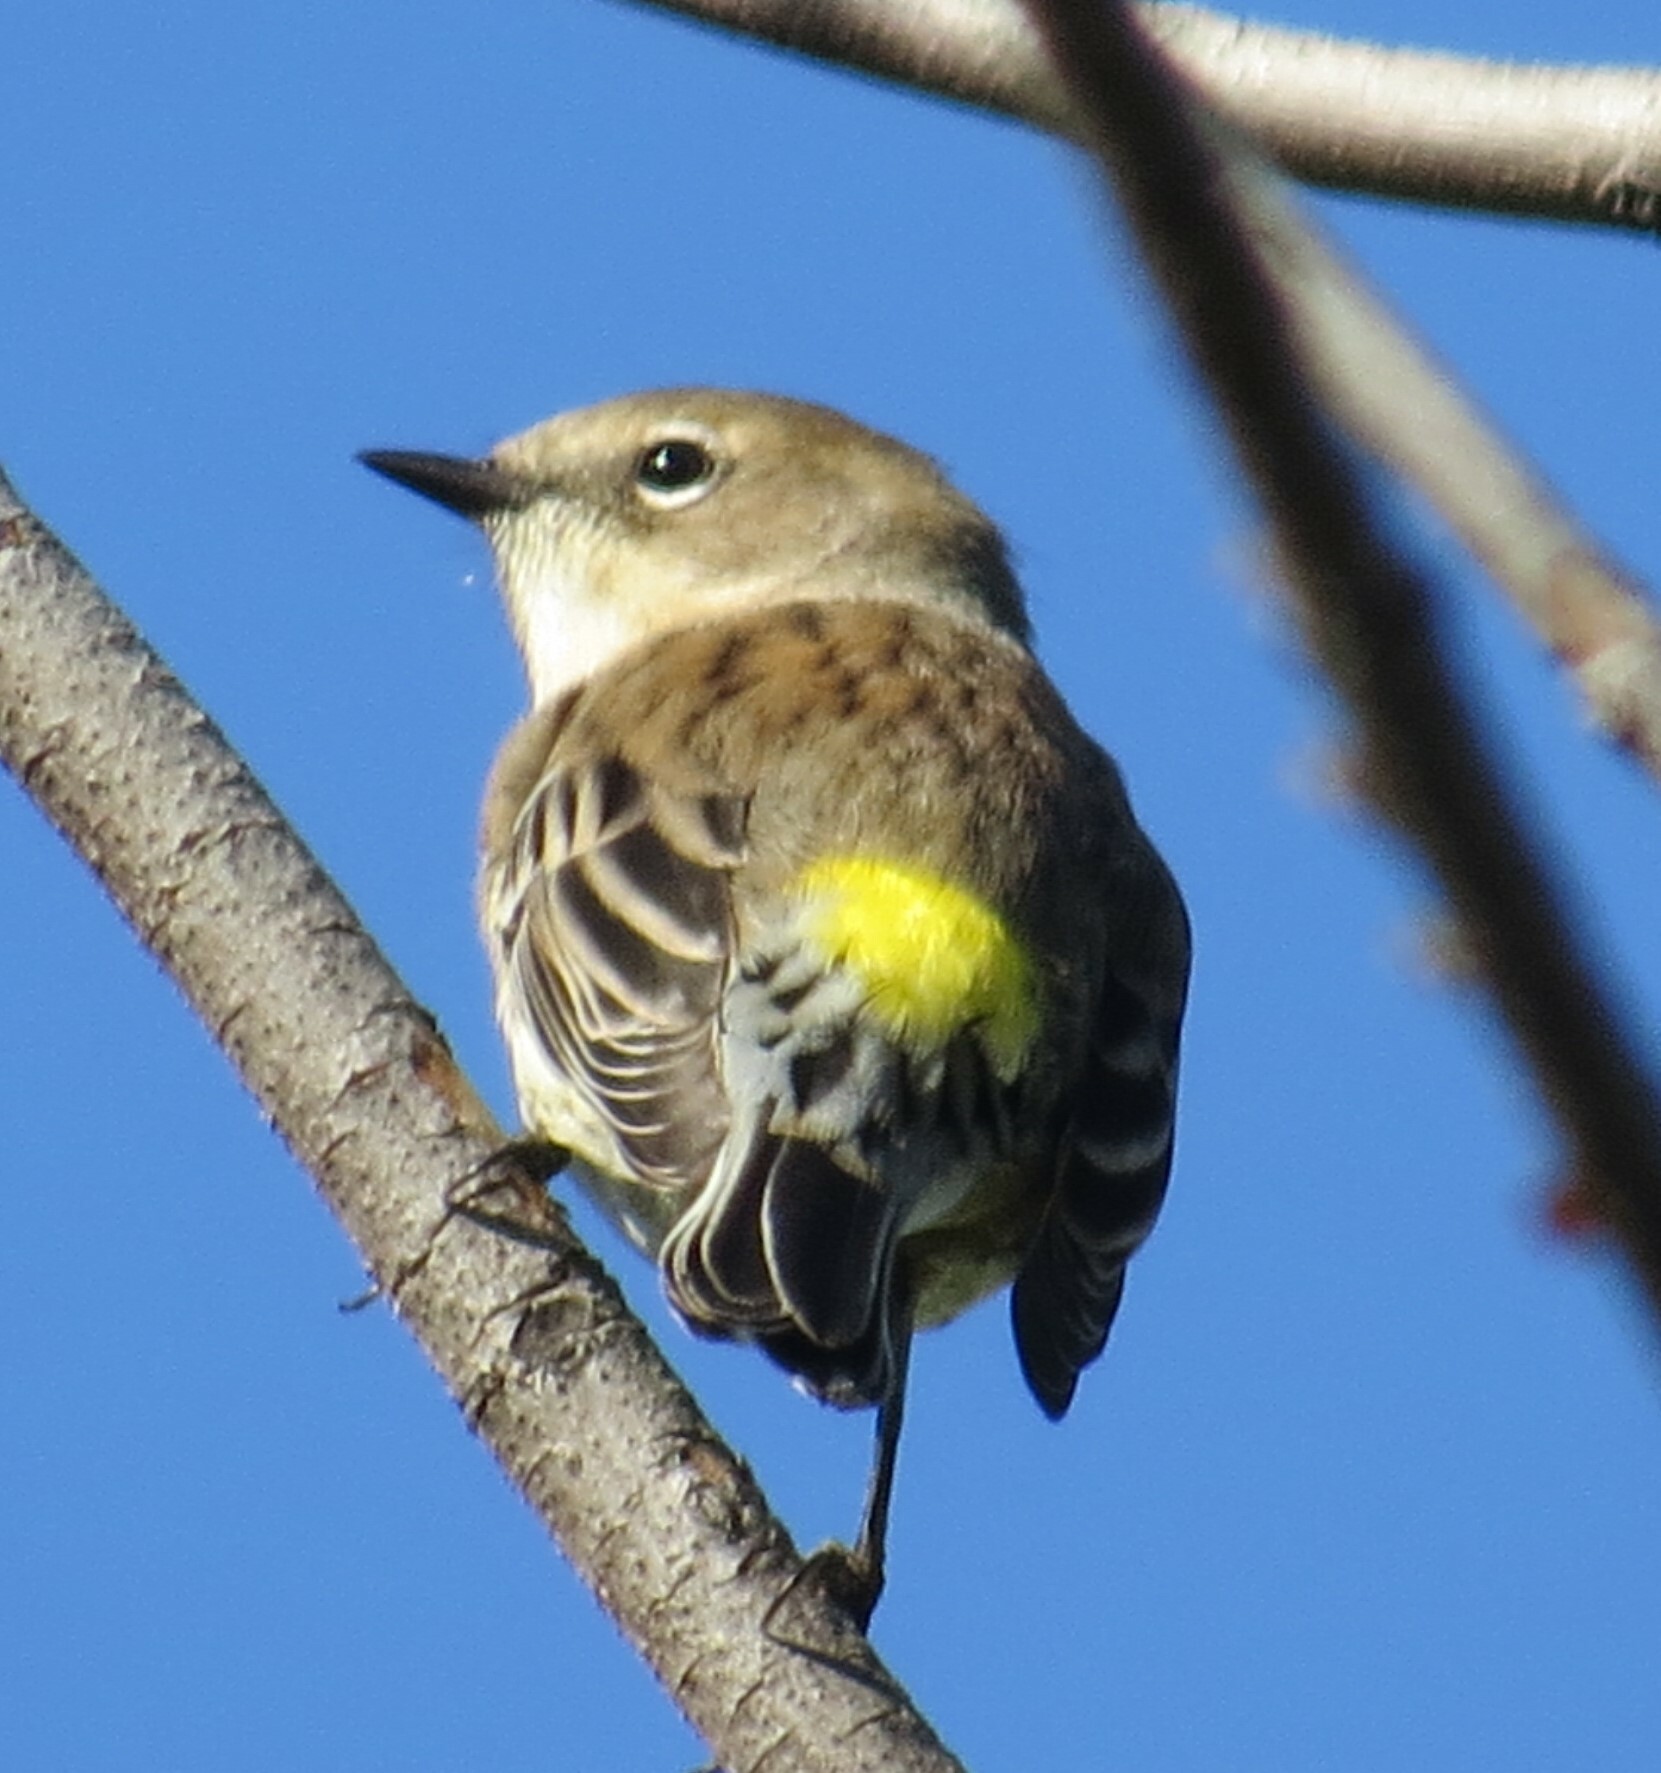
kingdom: Animalia
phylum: Chordata
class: Aves
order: Passeriformes
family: Parulidae
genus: Setophaga
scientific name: Setophaga coronata
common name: Myrtle warbler
